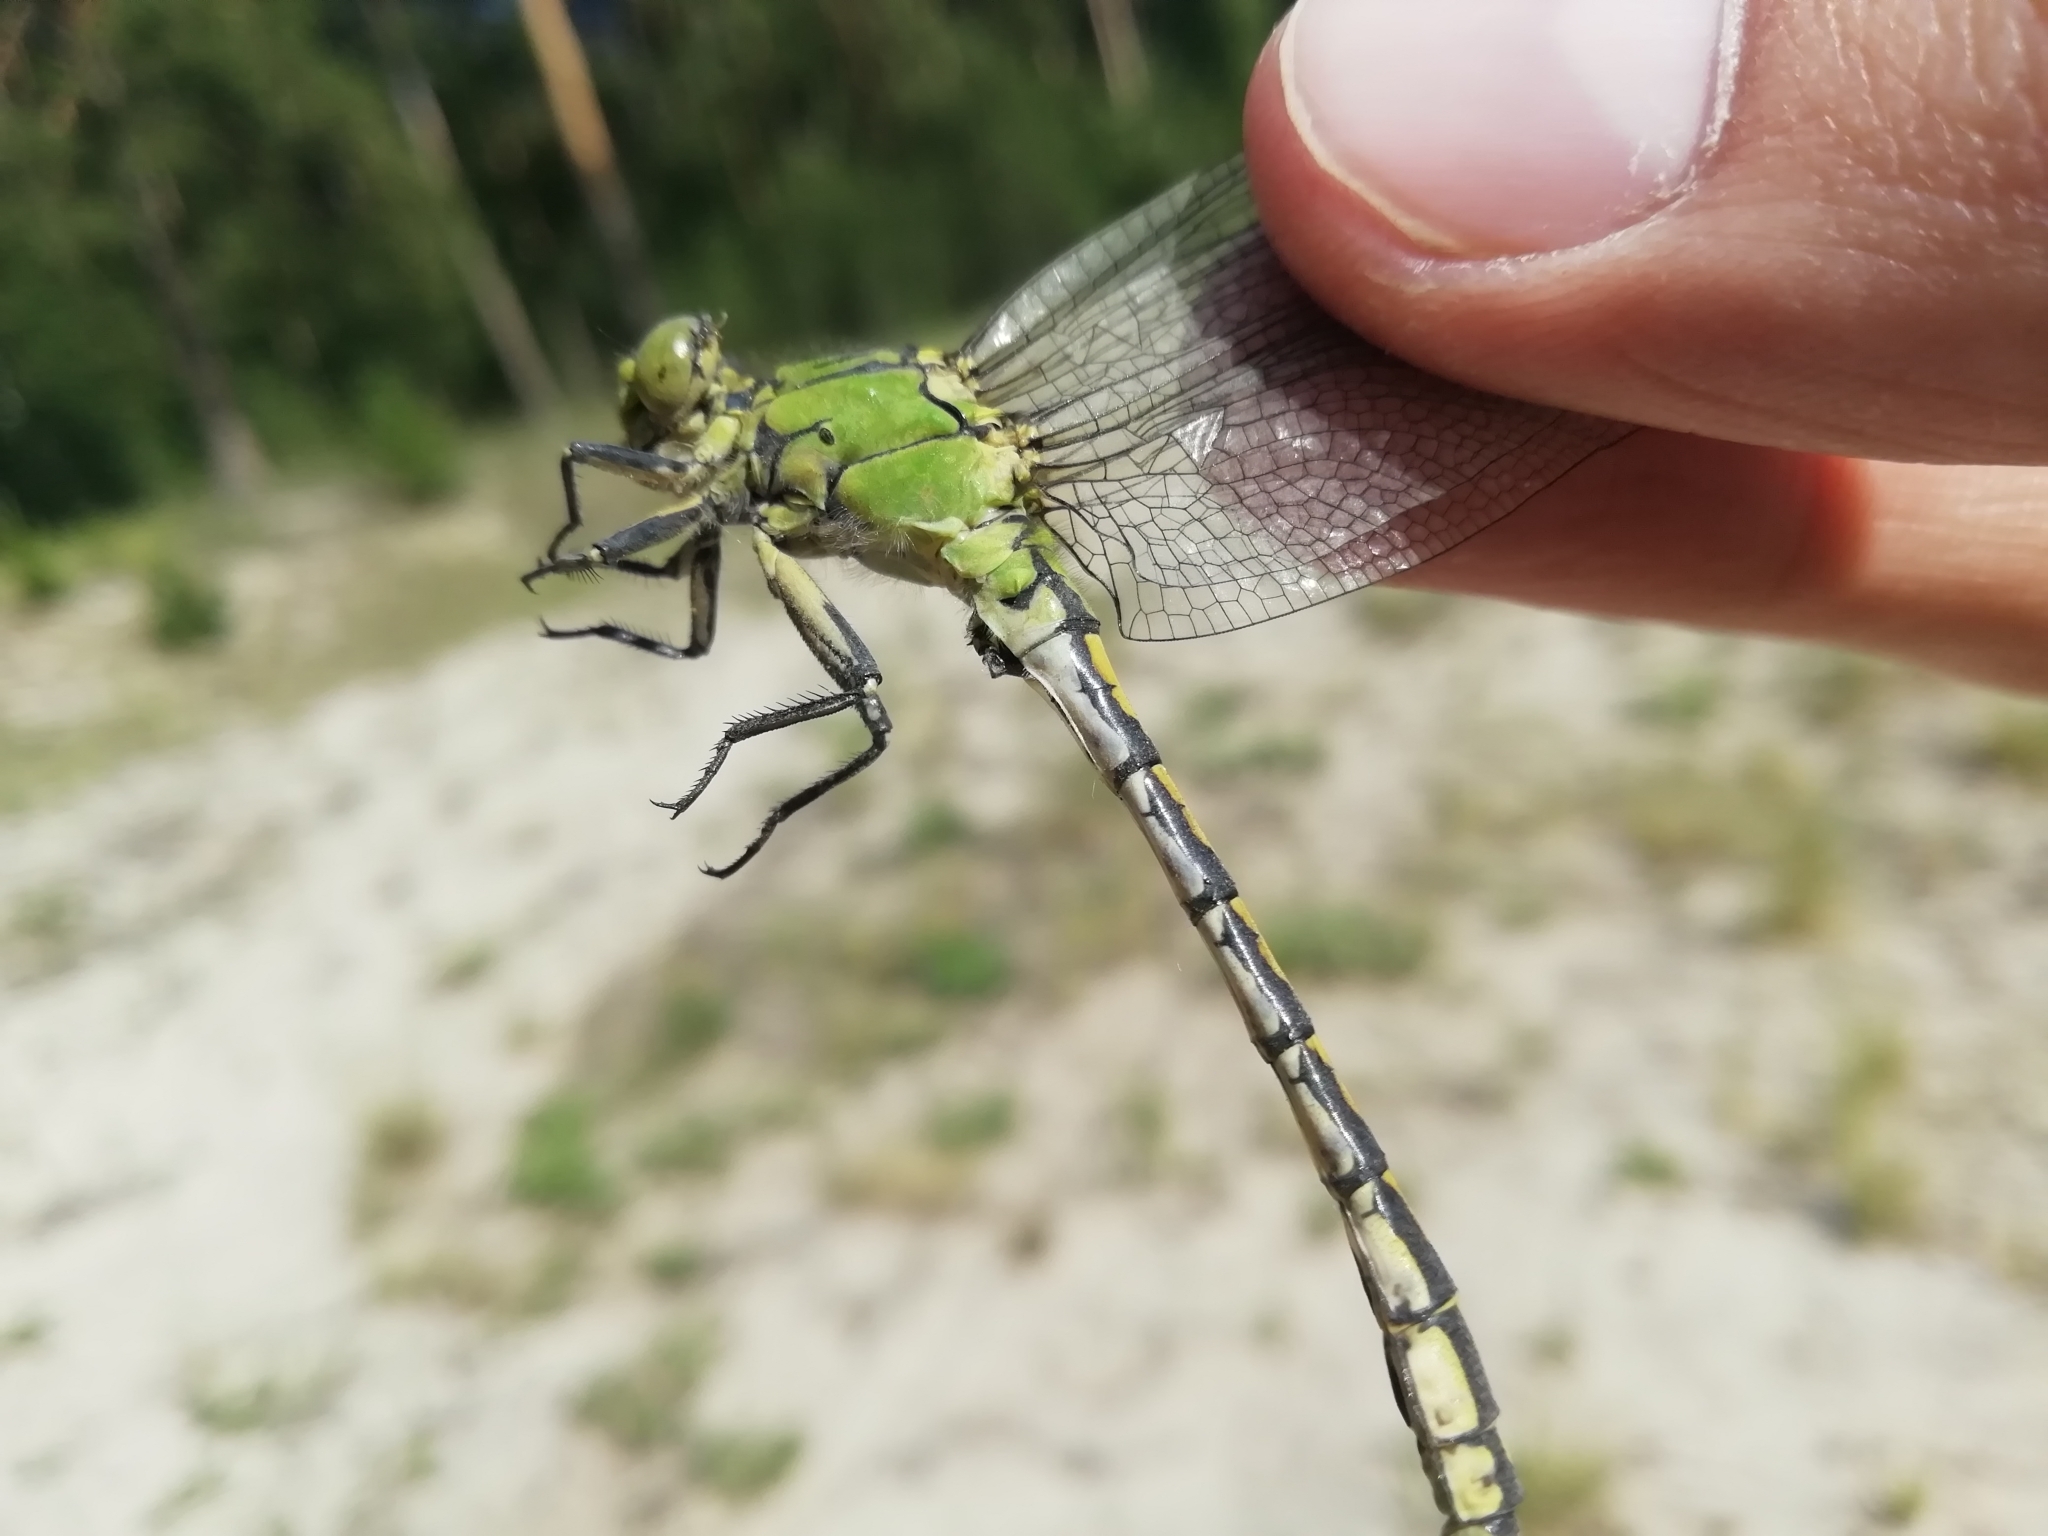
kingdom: Animalia
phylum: Arthropoda
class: Insecta
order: Odonata
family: Gomphidae
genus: Ophiogomphus
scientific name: Ophiogomphus cecilia
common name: Green snaketail
